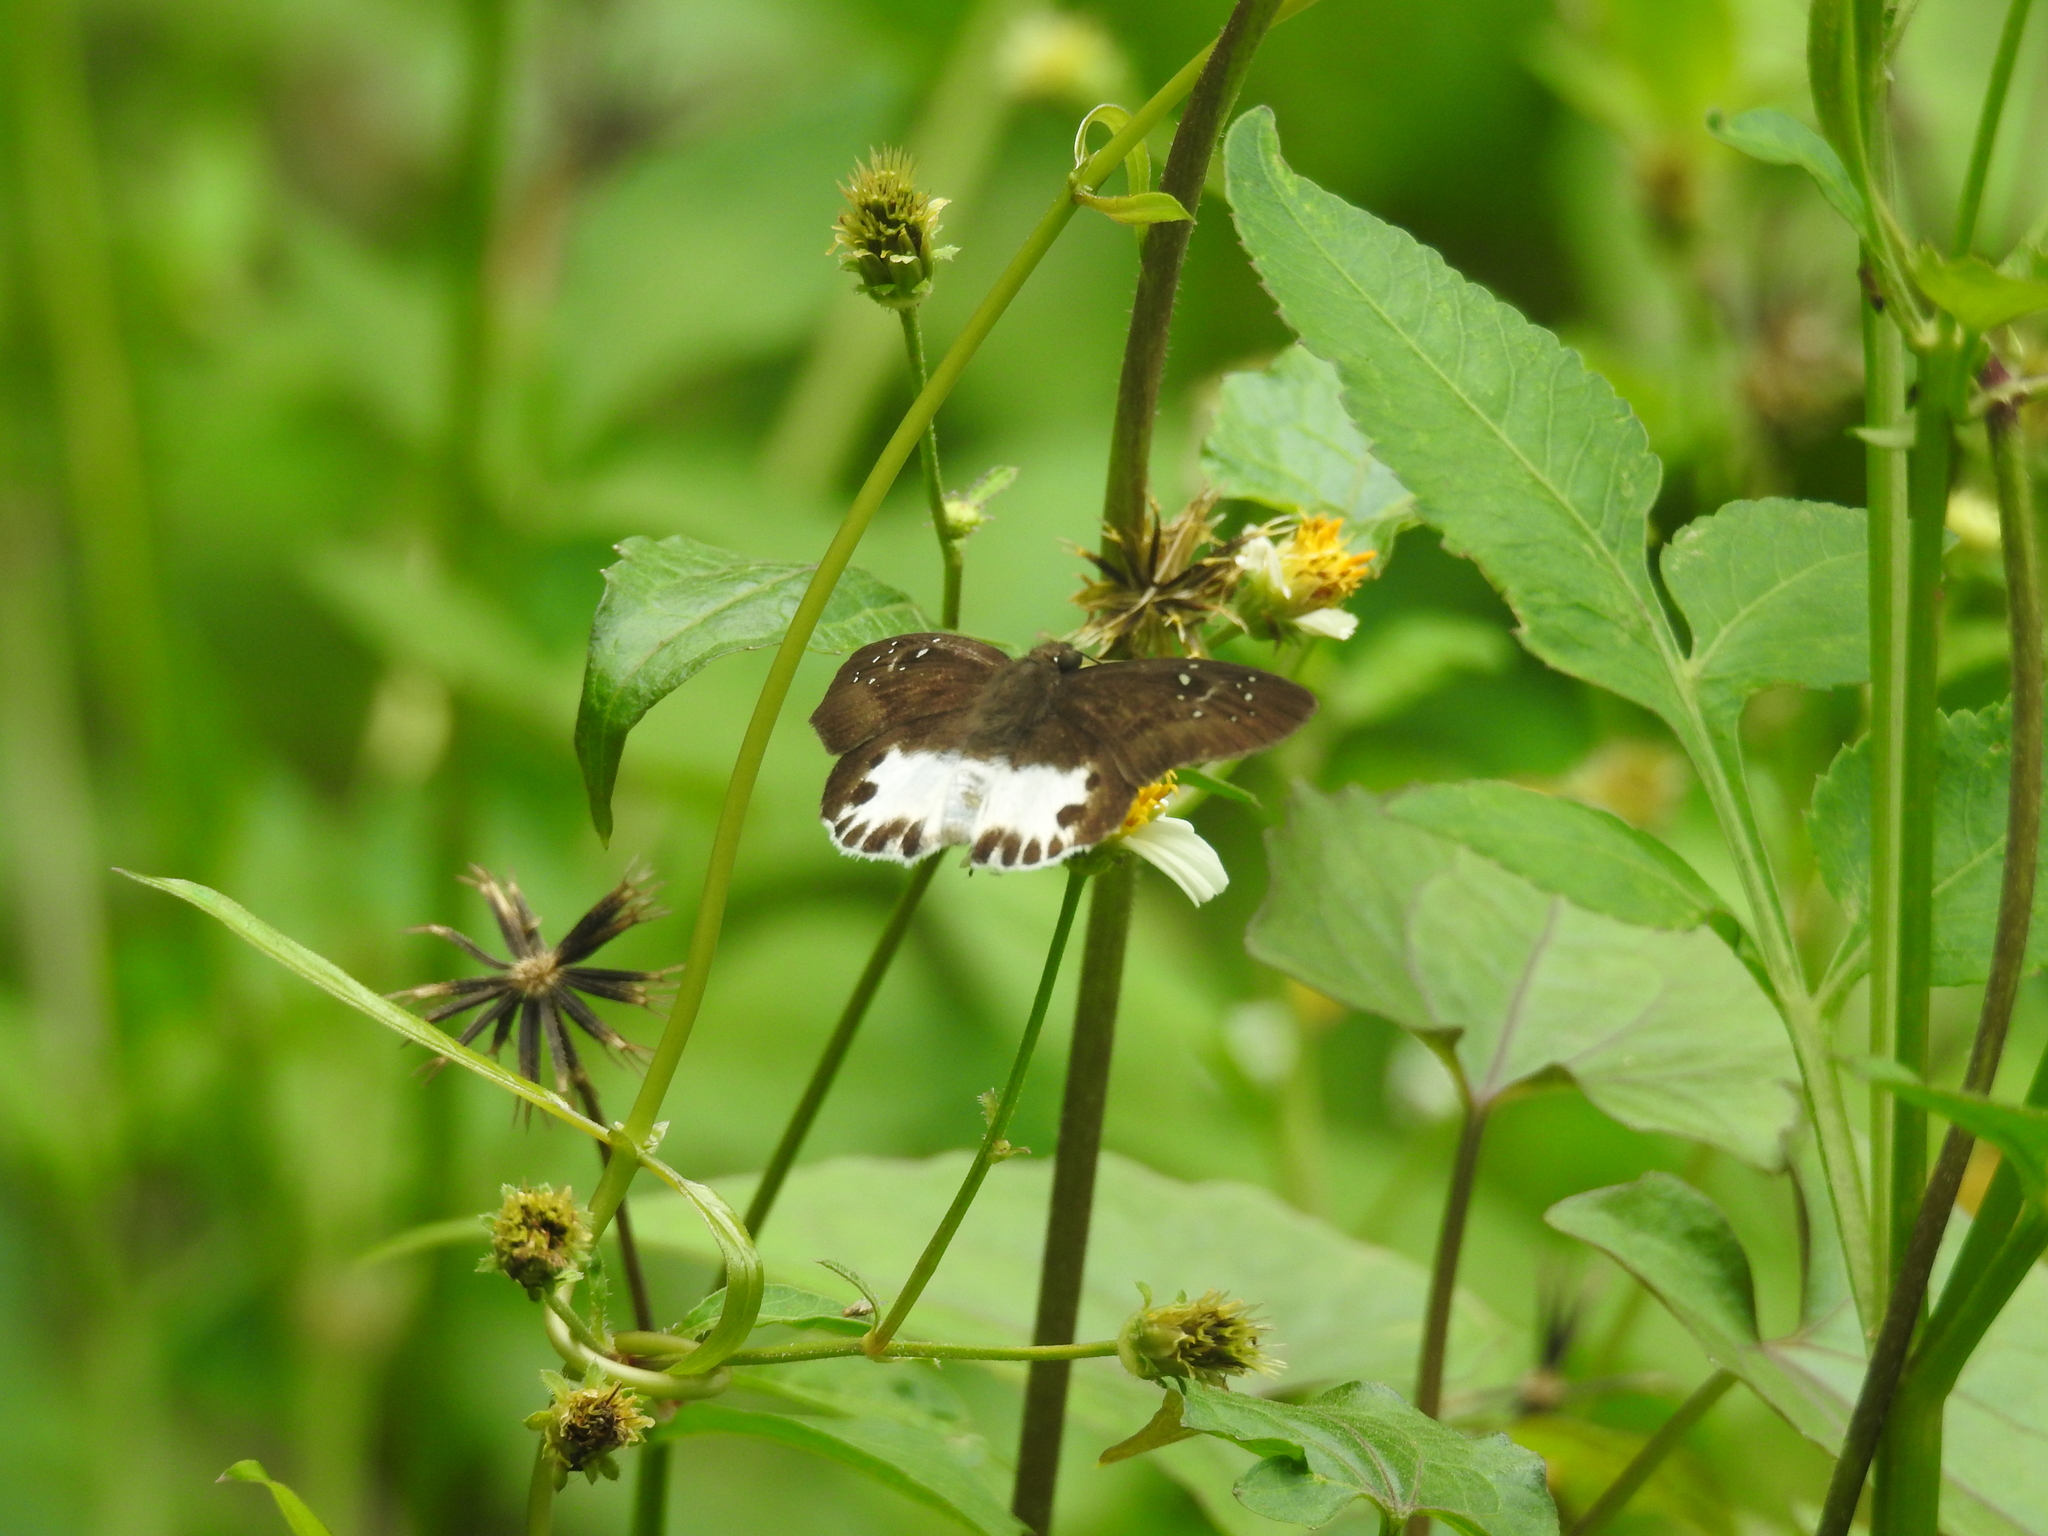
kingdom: Animalia
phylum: Arthropoda
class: Insecta
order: Lepidoptera
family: Hesperiidae
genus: Tagiades
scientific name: Tagiades litigiosa
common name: Water snow flat
